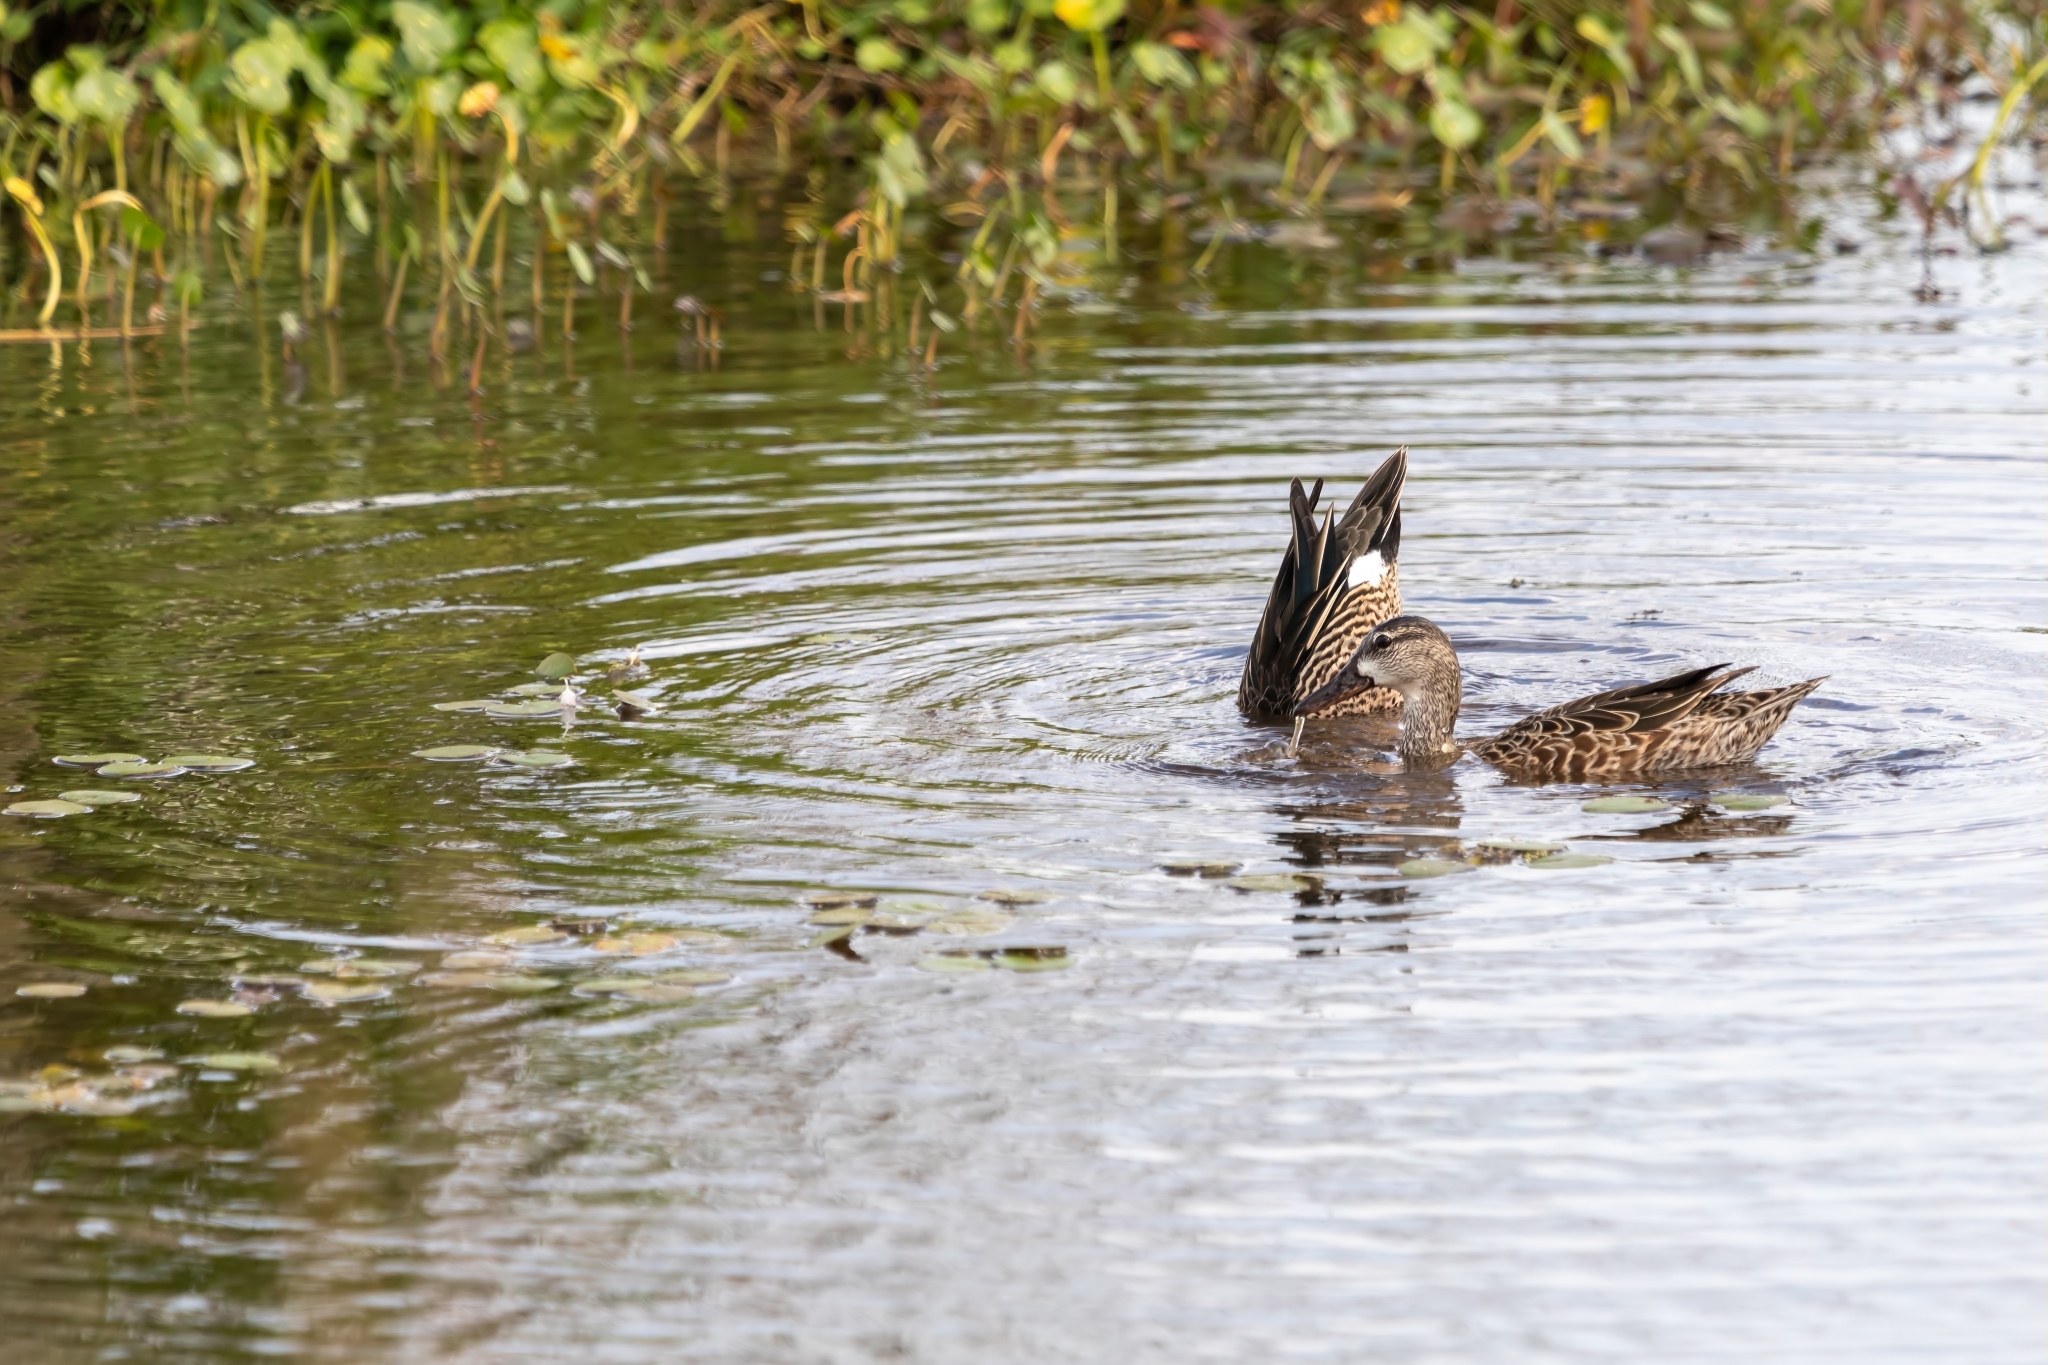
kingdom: Animalia
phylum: Chordata
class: Aves
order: Anseriformes
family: Anatidae
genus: Spatula
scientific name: Spatula discors
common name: Blue-winged teal
